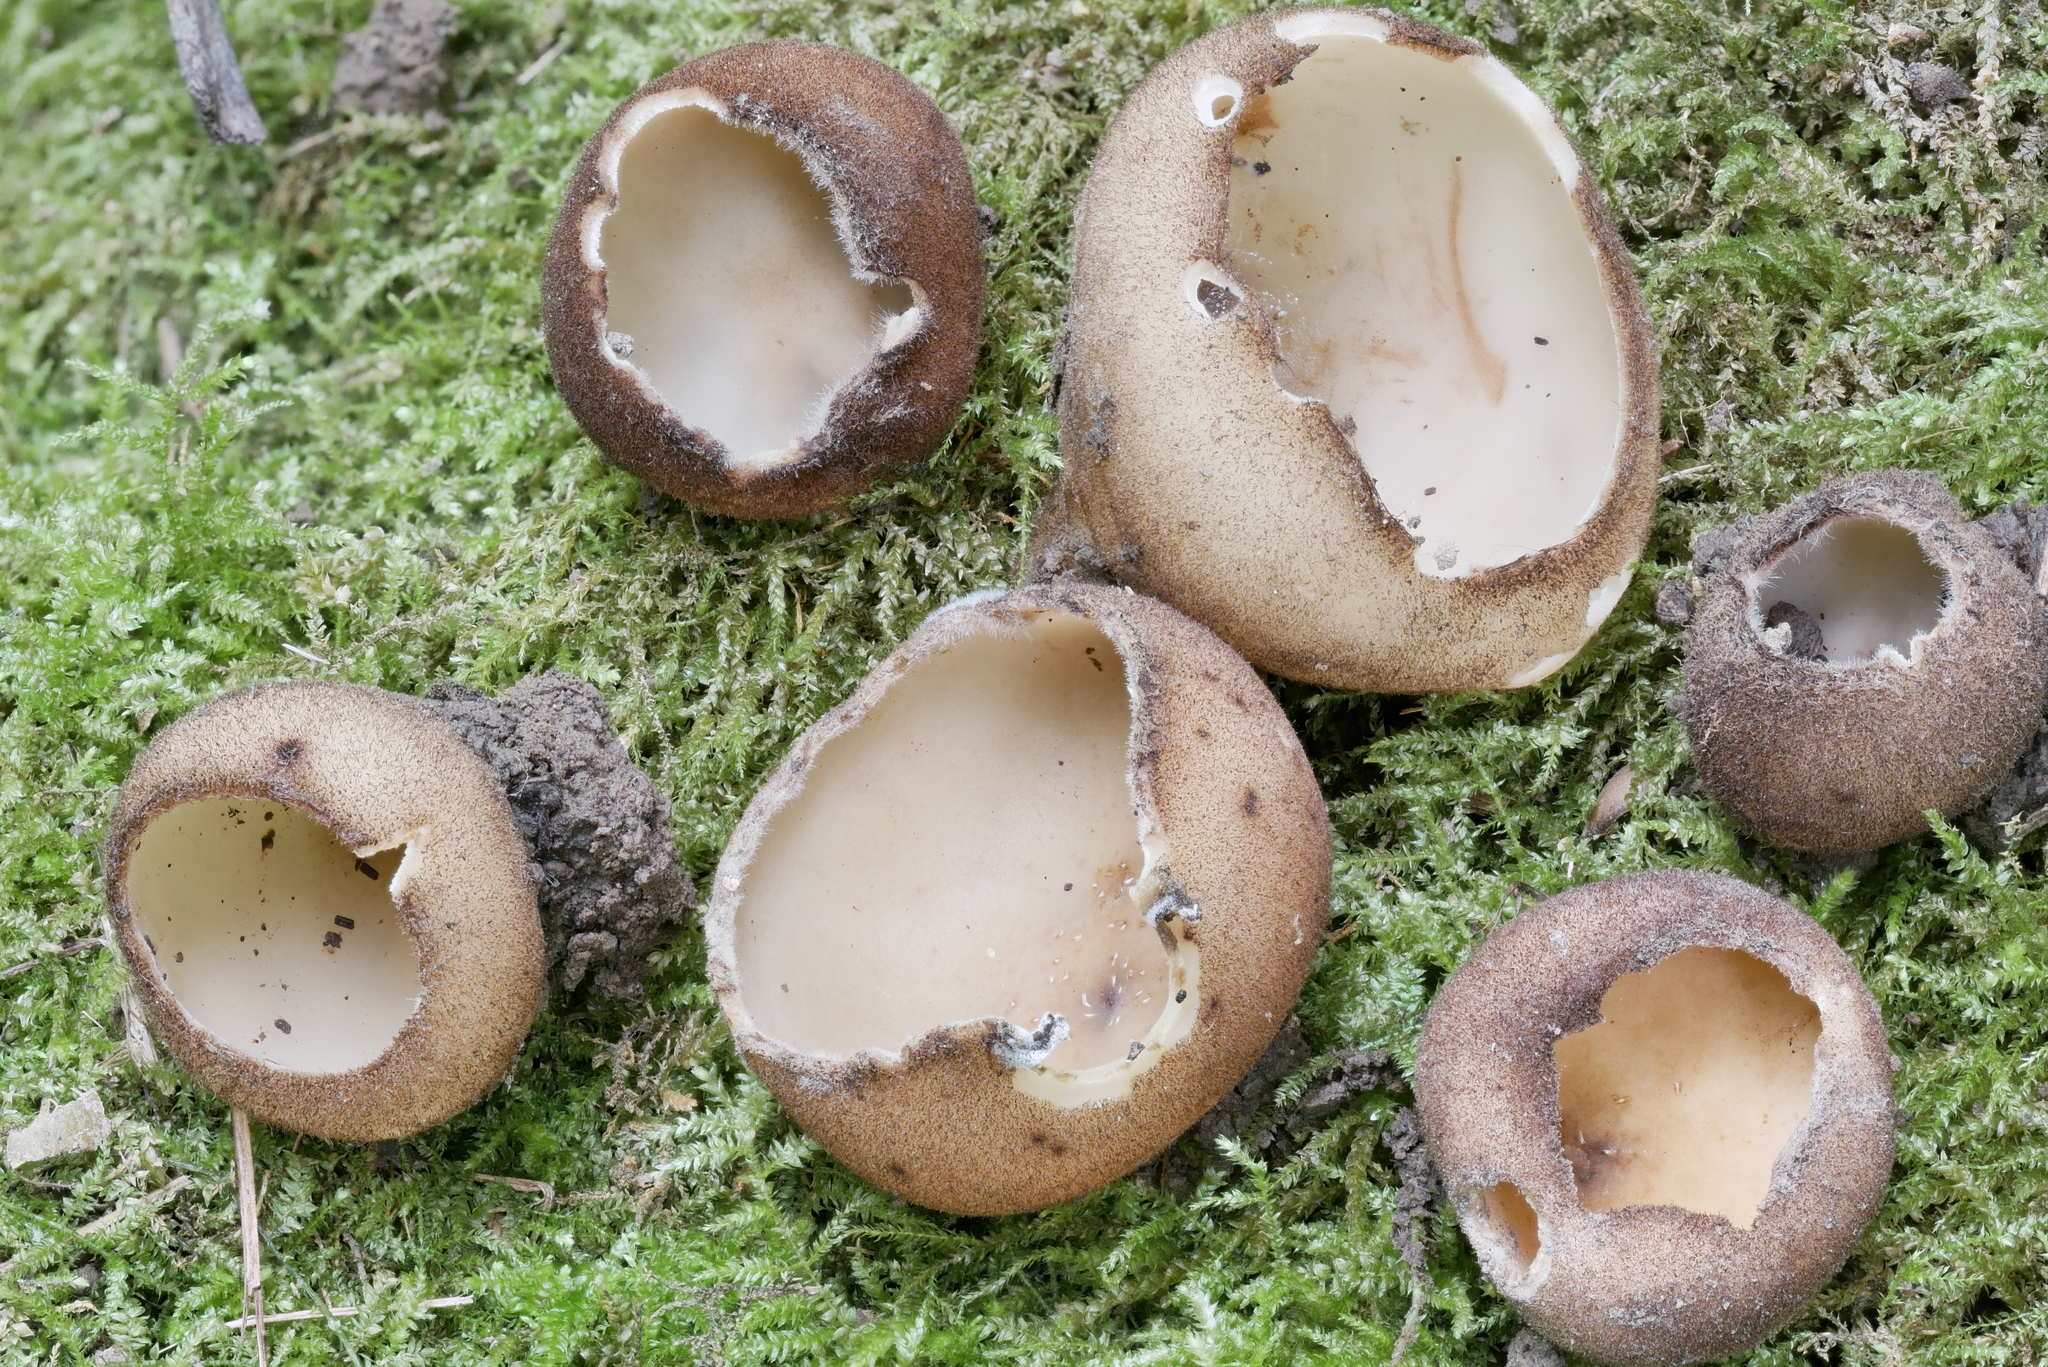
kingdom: Fungi
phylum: Ascomycota
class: Pezizomycetes
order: Pezizales
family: Pyronemataceae
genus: Jafnea
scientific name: Jafnea semitosta
